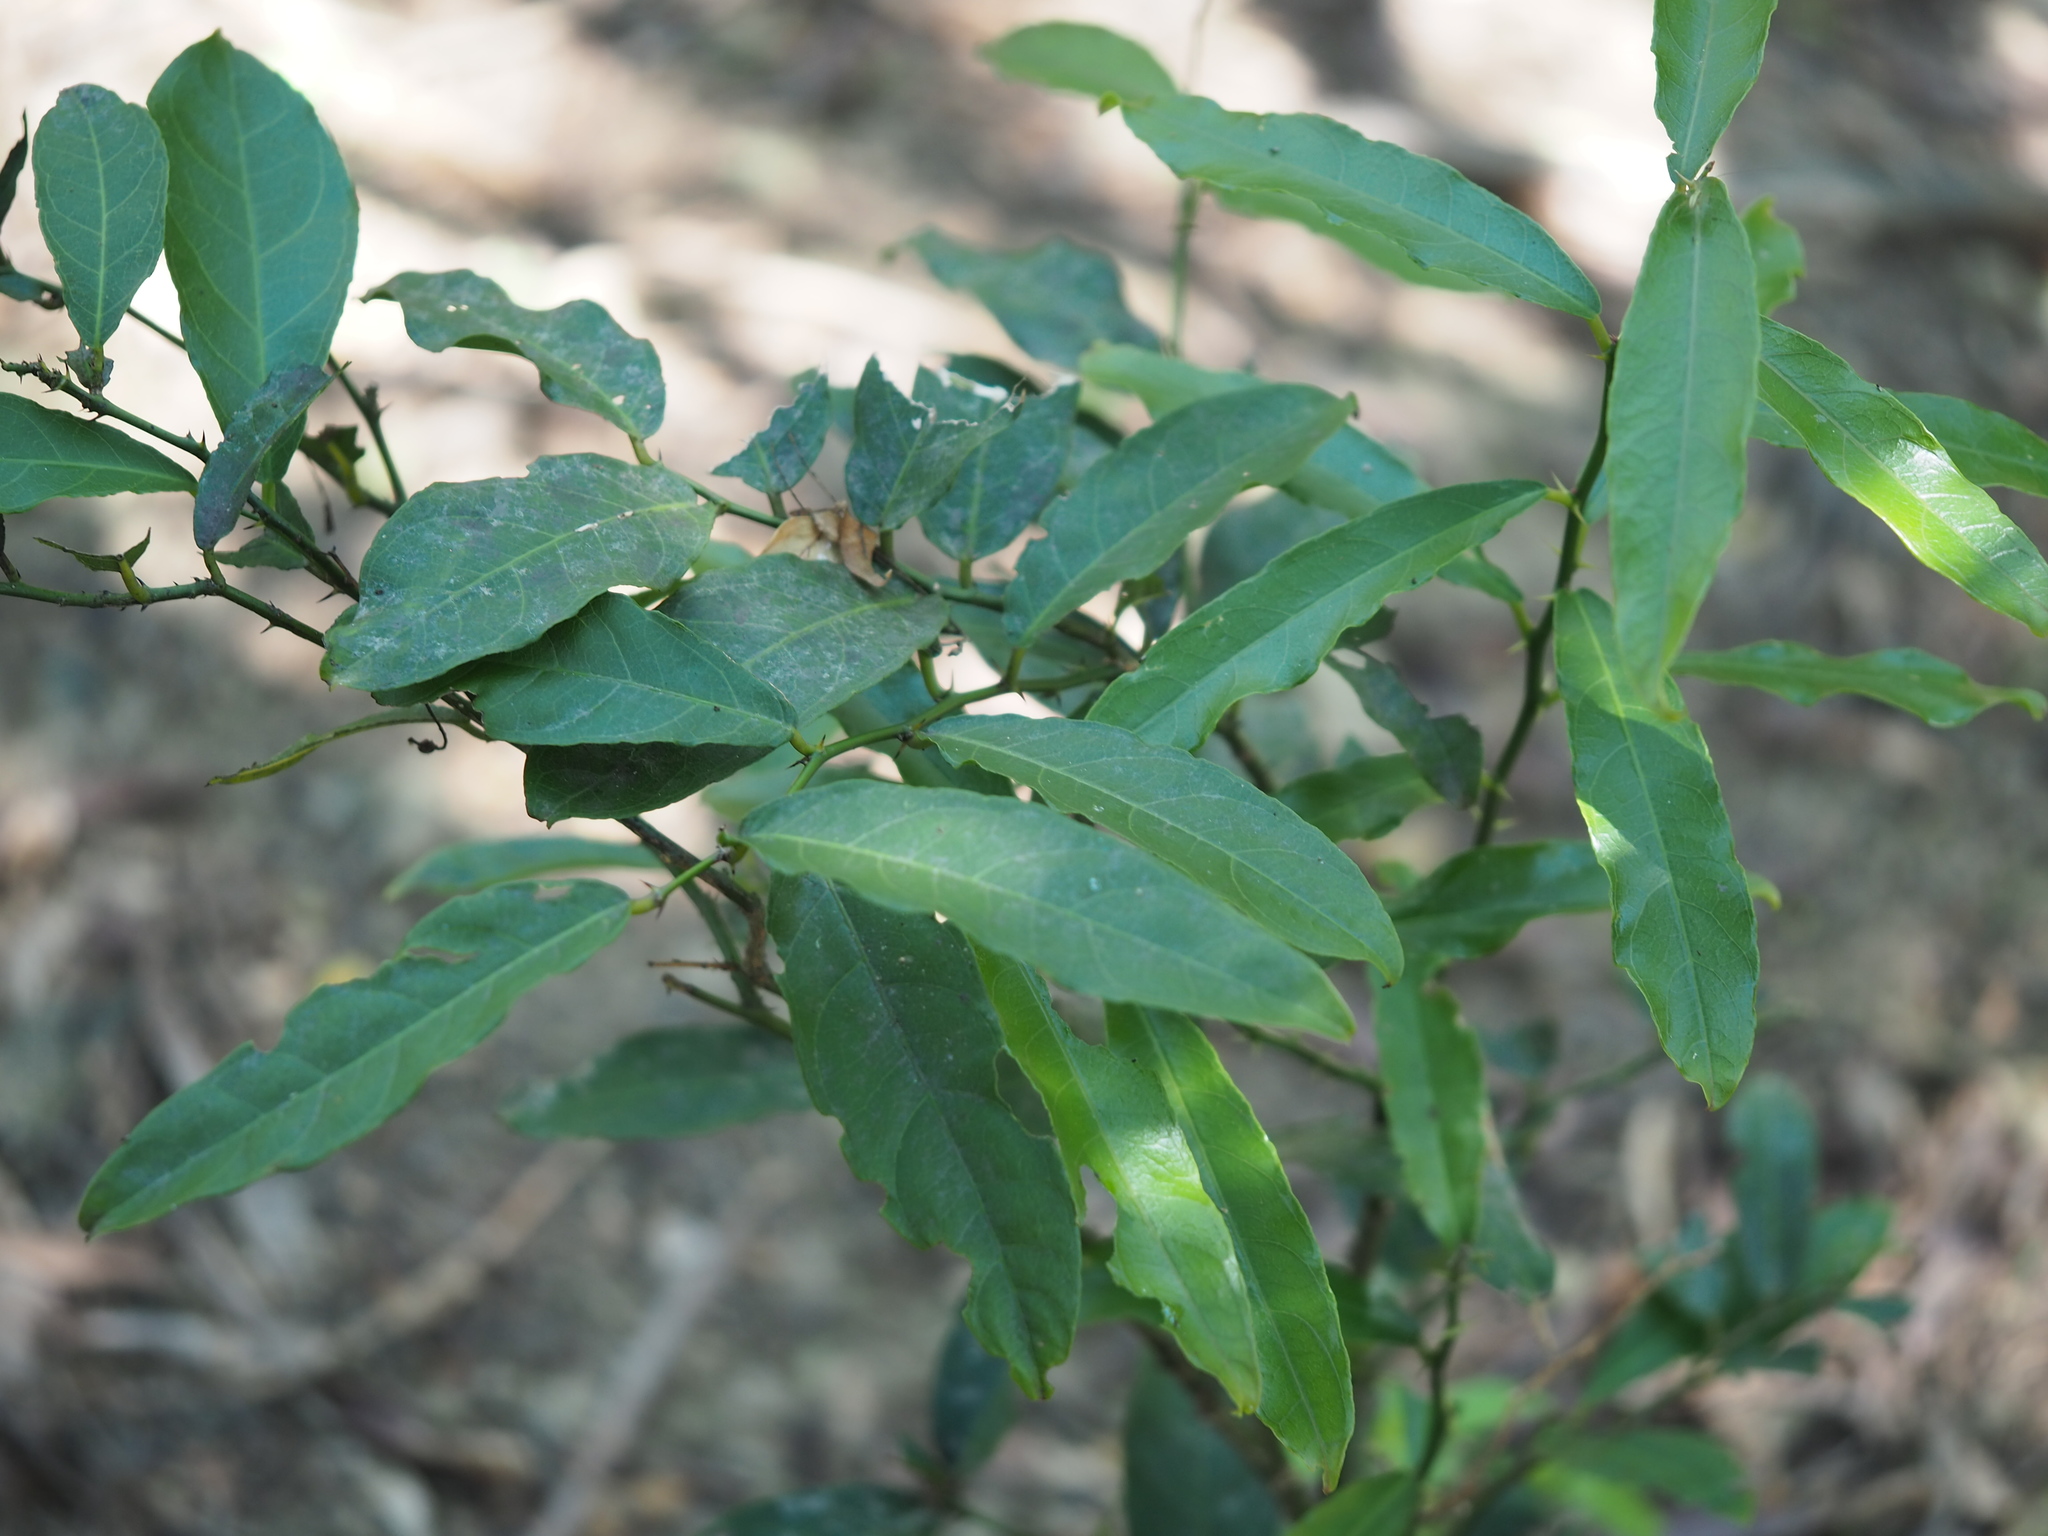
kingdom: Plantae
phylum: Tracheophyta
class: Magnoliopsida
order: Brassicales
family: Capparaceae
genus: Capparis
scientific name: Capparis henryi
